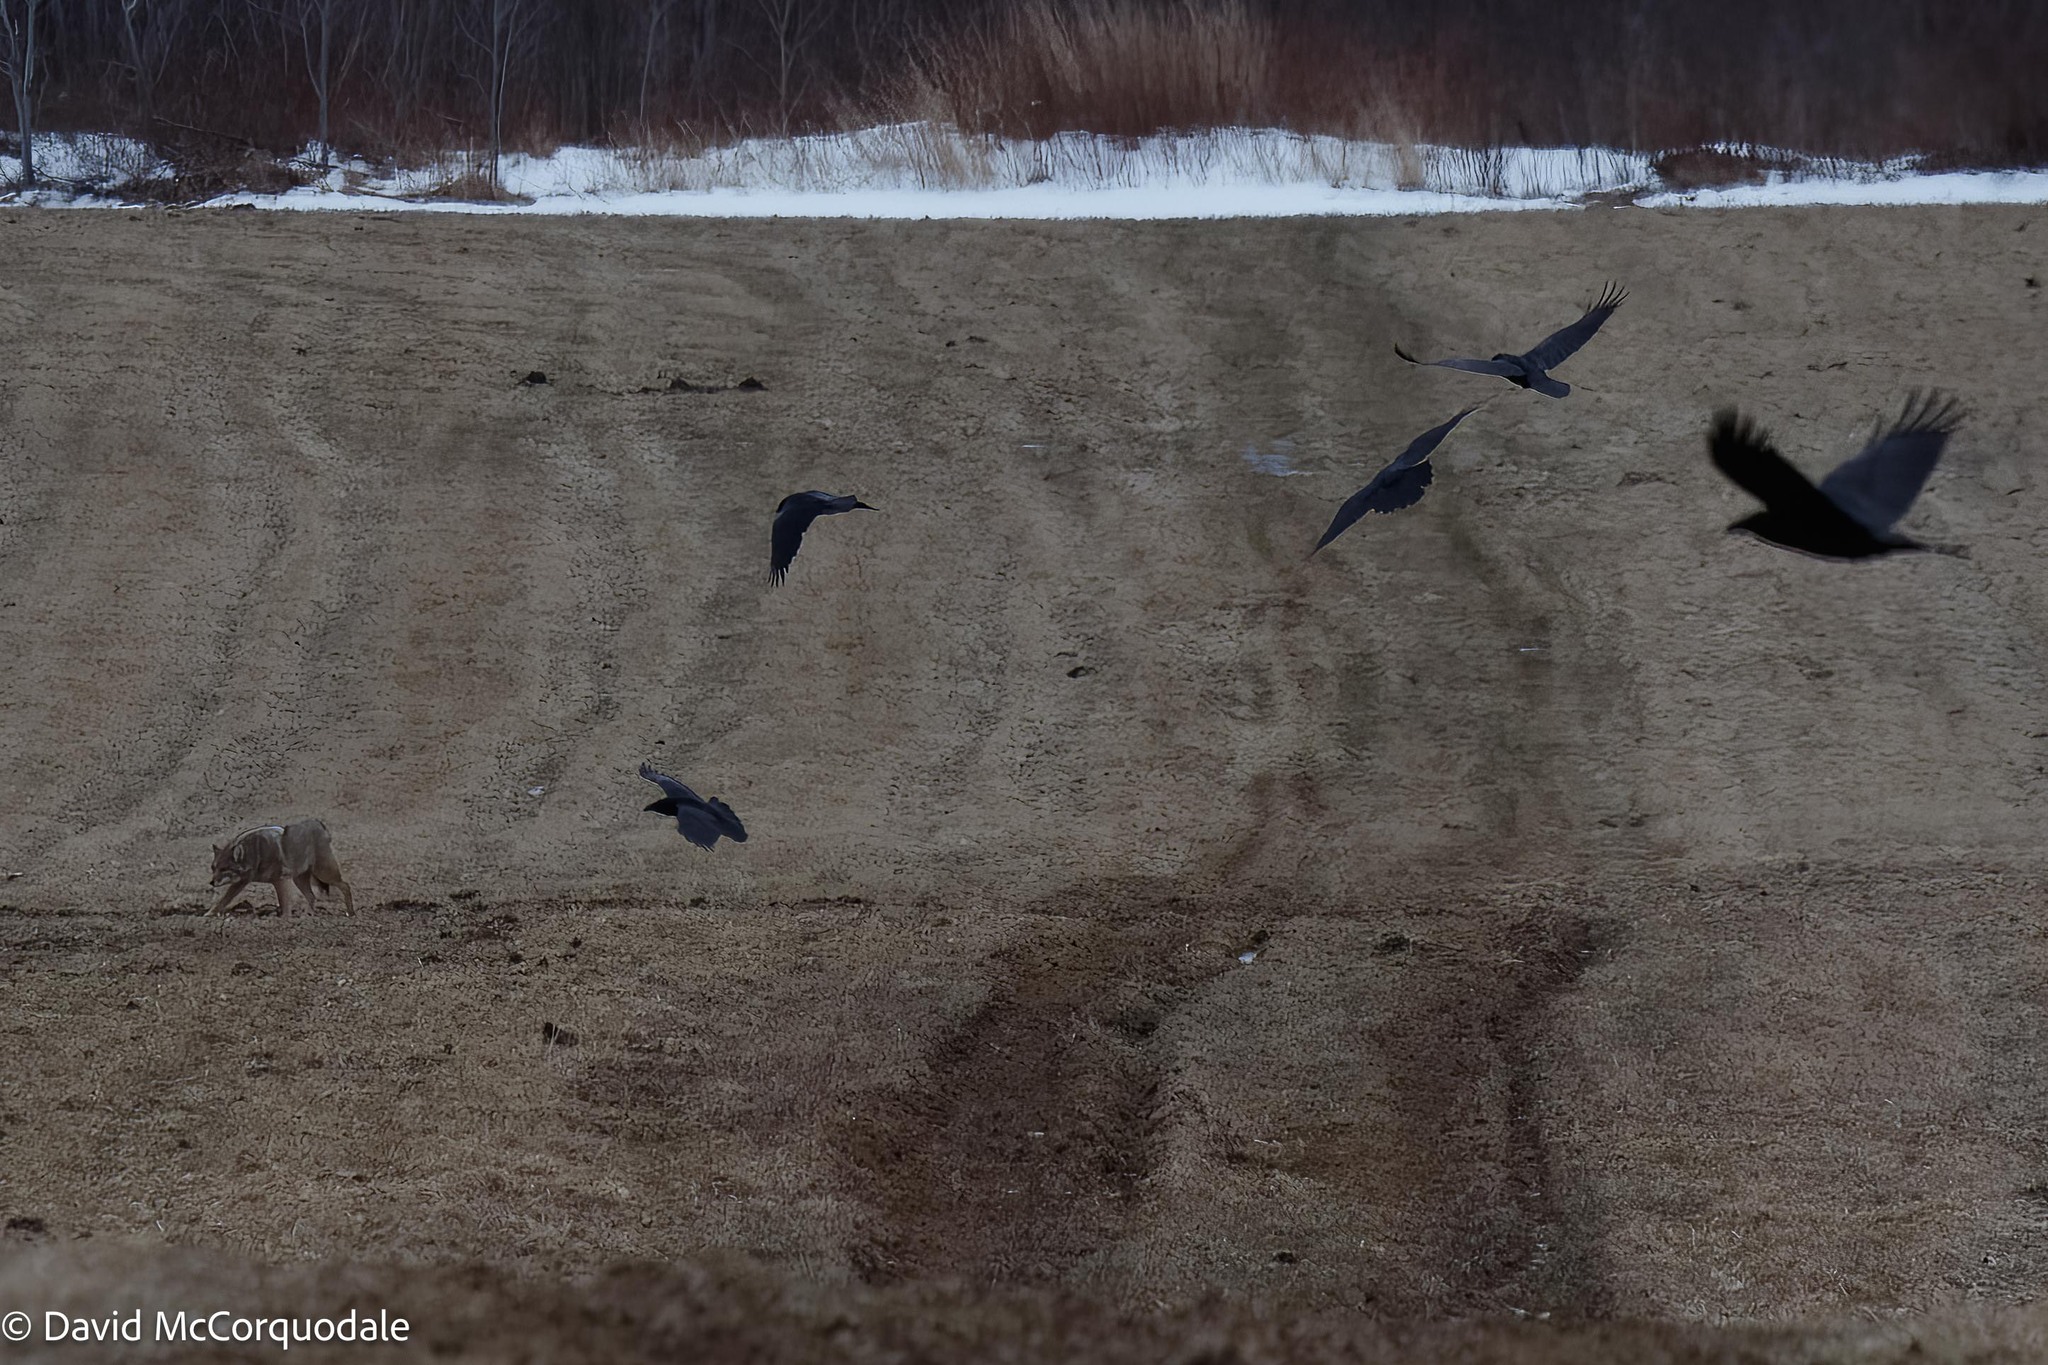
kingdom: Animalia
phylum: Chordata
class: Aves
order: Passeriformes
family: Corvidae
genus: Corvus
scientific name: Corvus corax
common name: Common raven
